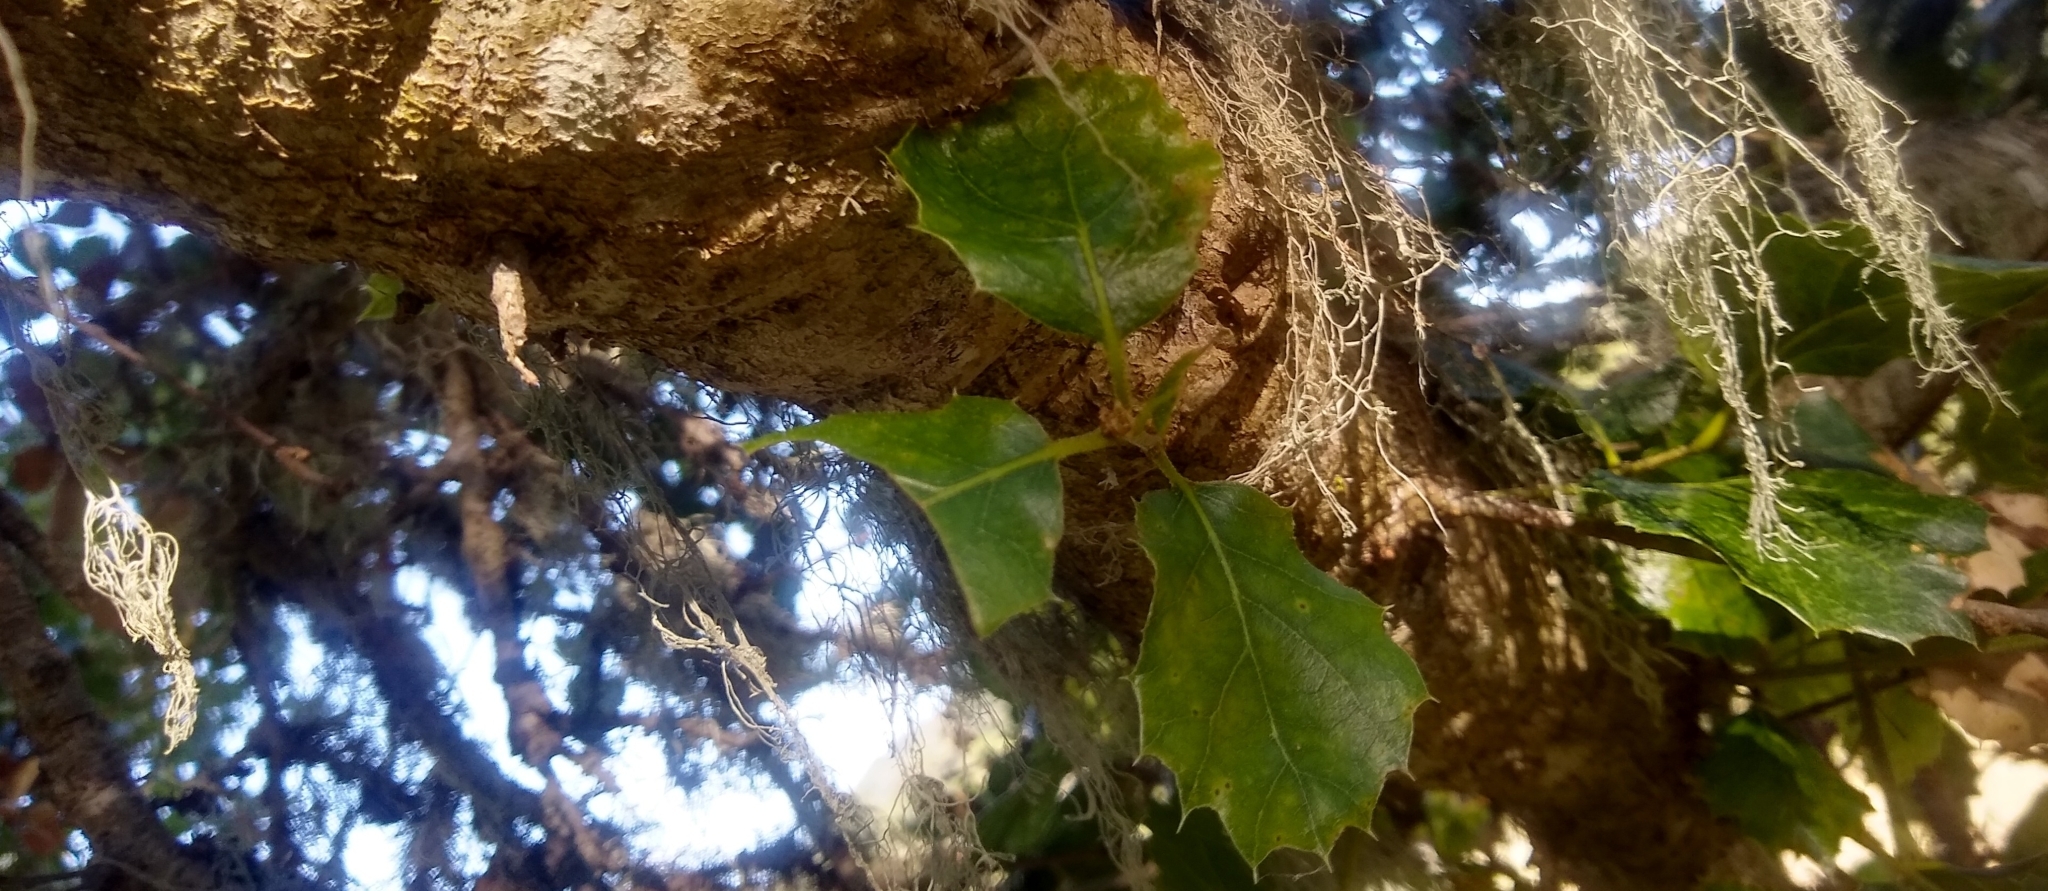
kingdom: Plantae
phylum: Tracheophyta
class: Magnoliopsida
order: Fagales
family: Fagaceae
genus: Quercus
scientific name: Quercus agrifolia
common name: California live oak
